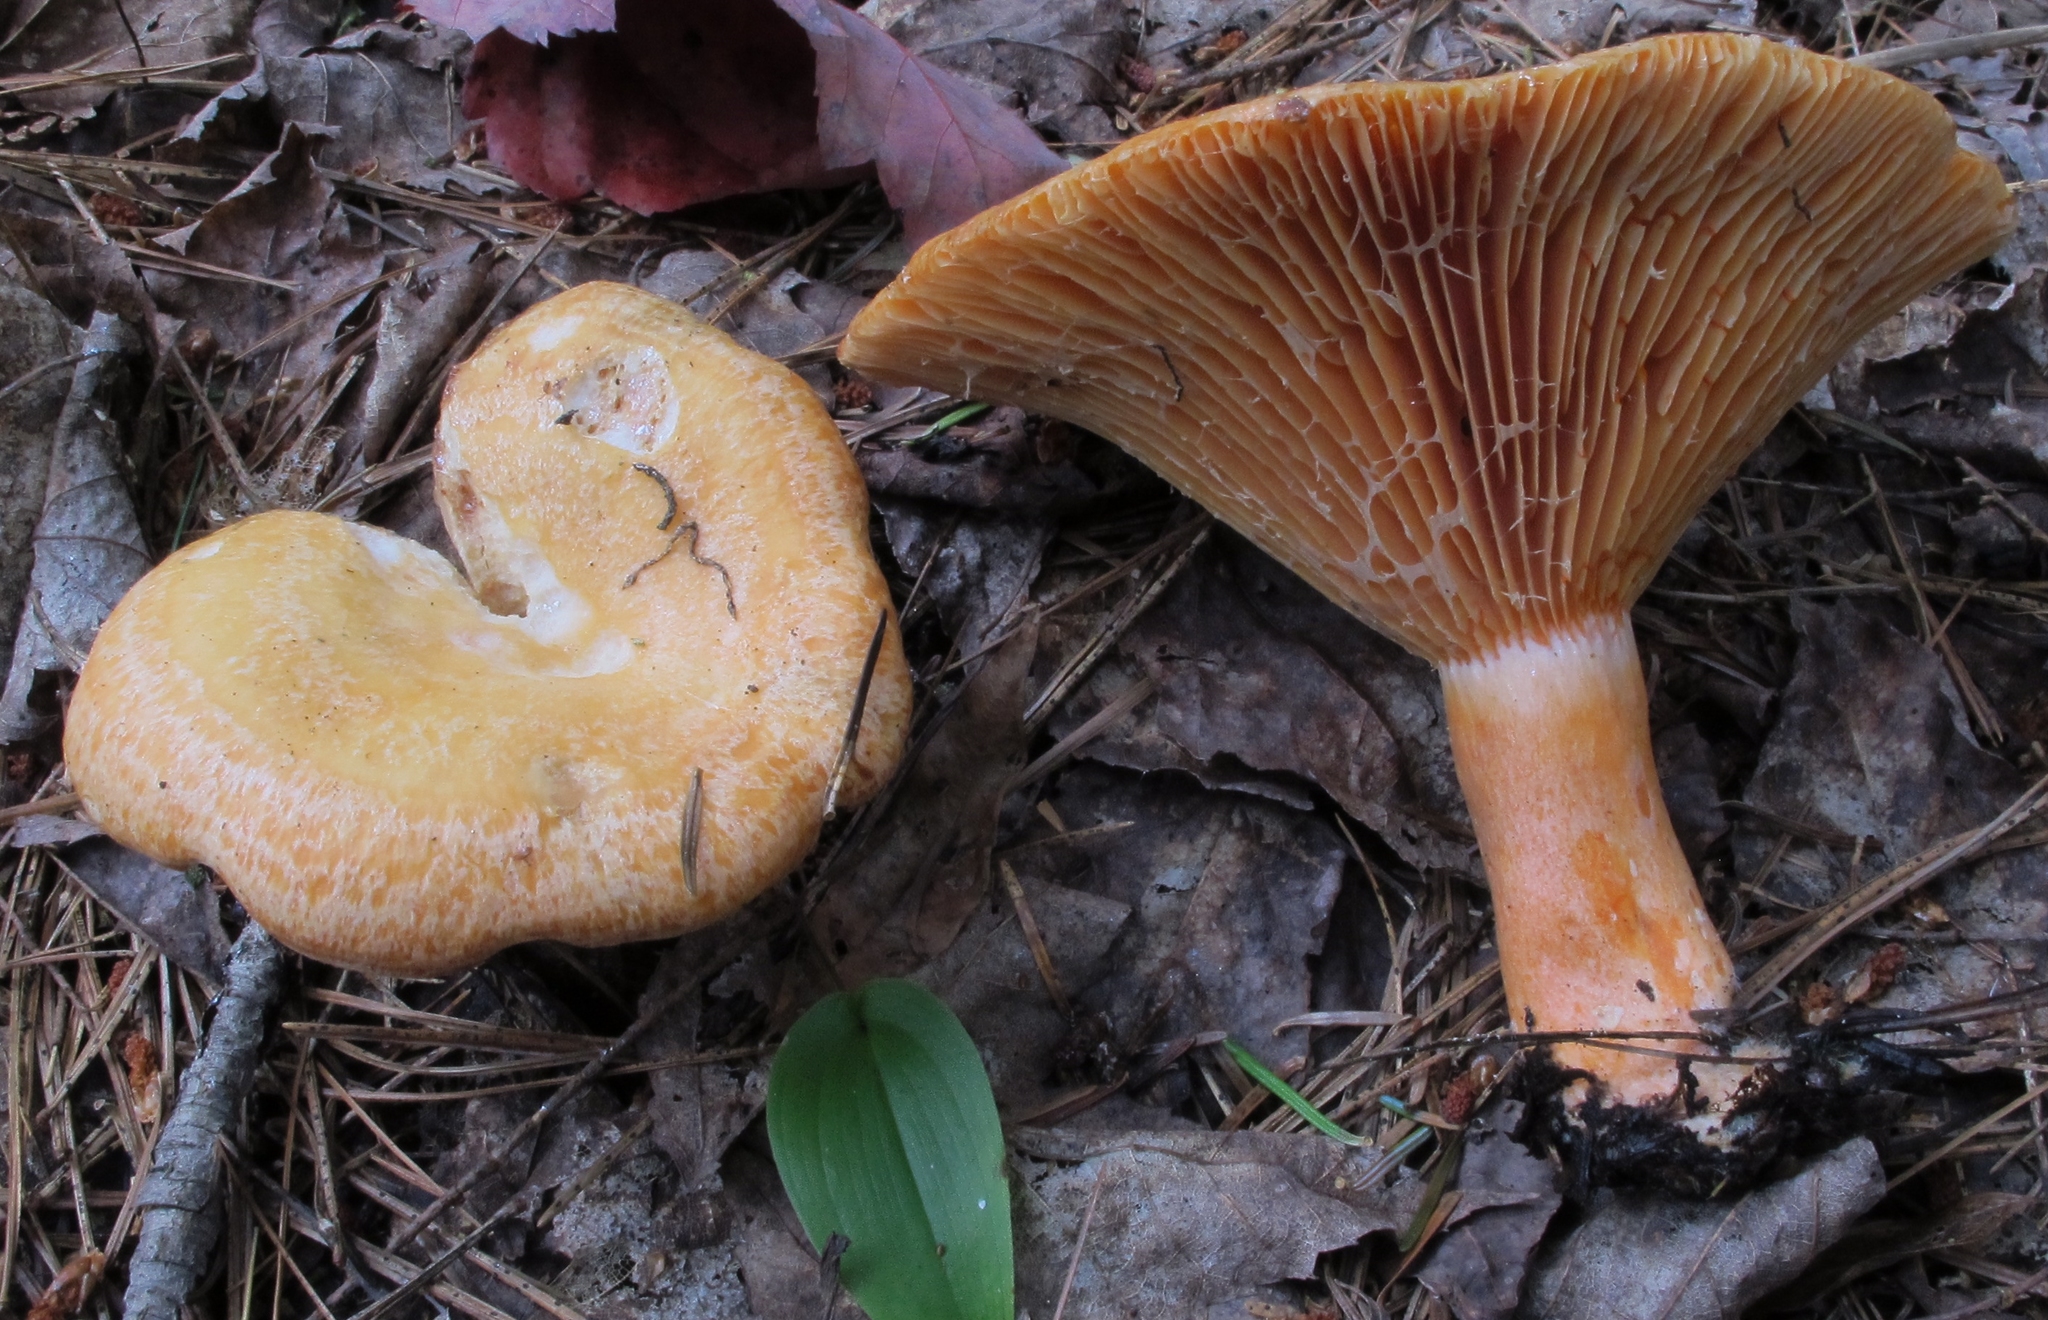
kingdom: Fungi
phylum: Basidiomycota
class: Agaricomycetes
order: Russulales
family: Russulaceae
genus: Lactarius
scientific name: Lactarius salmonicolor
